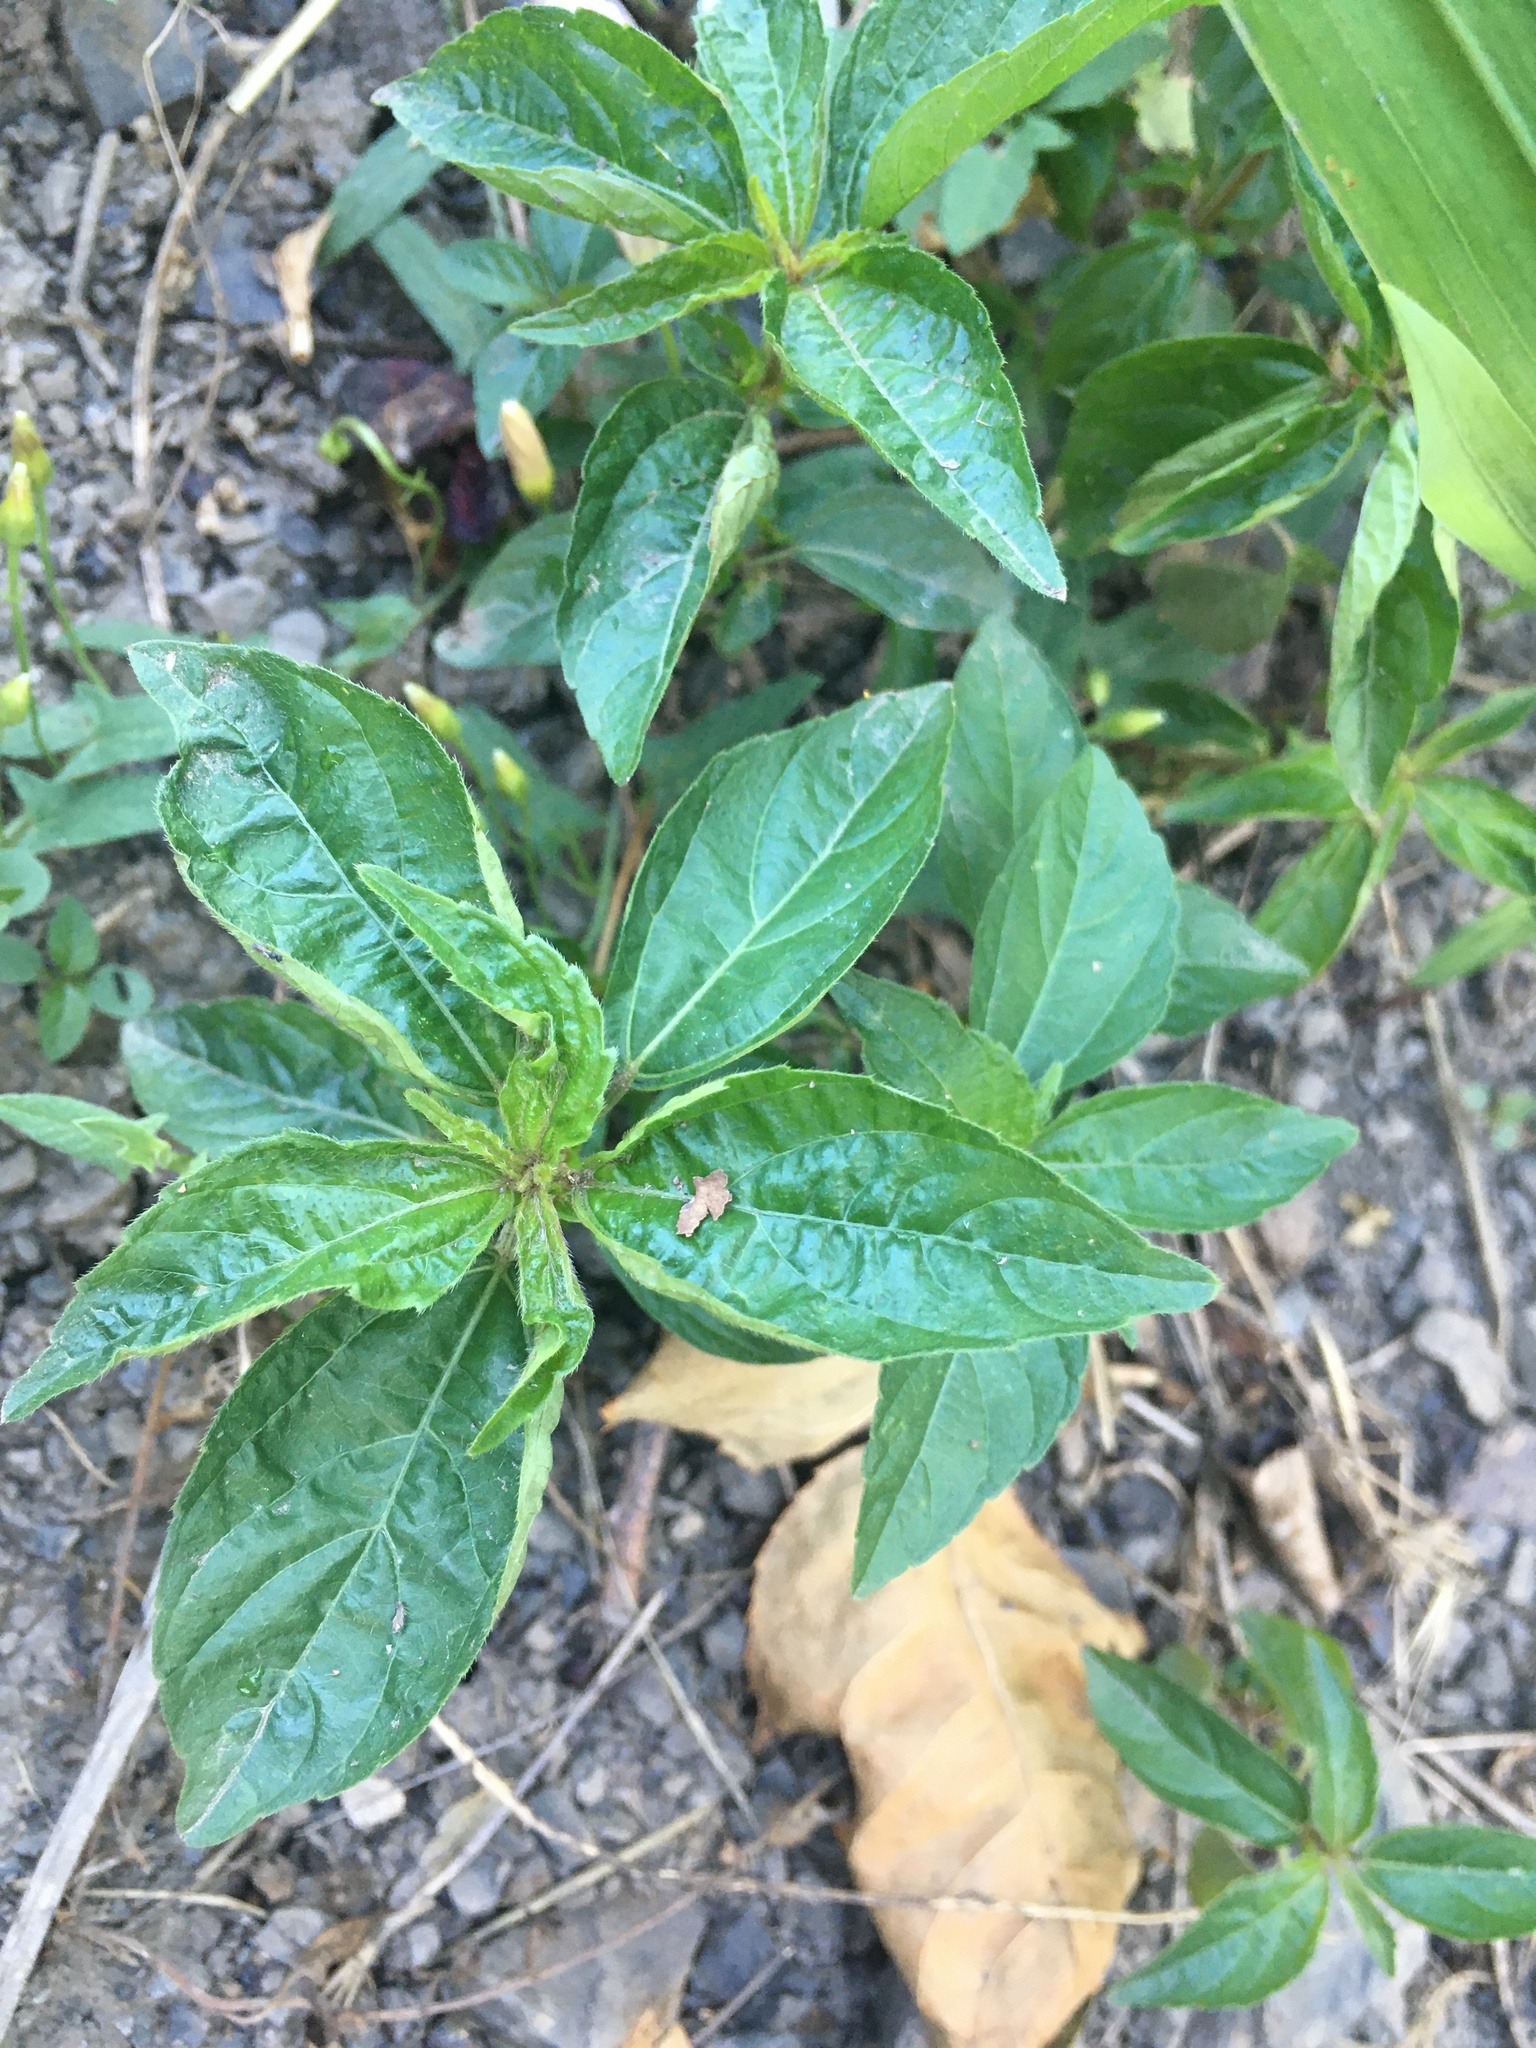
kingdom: Plantae
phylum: Tracheophyta
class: Magnoliopsida
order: Malpighiales
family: Euphorbiaceae
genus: Mercurialis
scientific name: Mercurialis perennis
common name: Dog mercury
